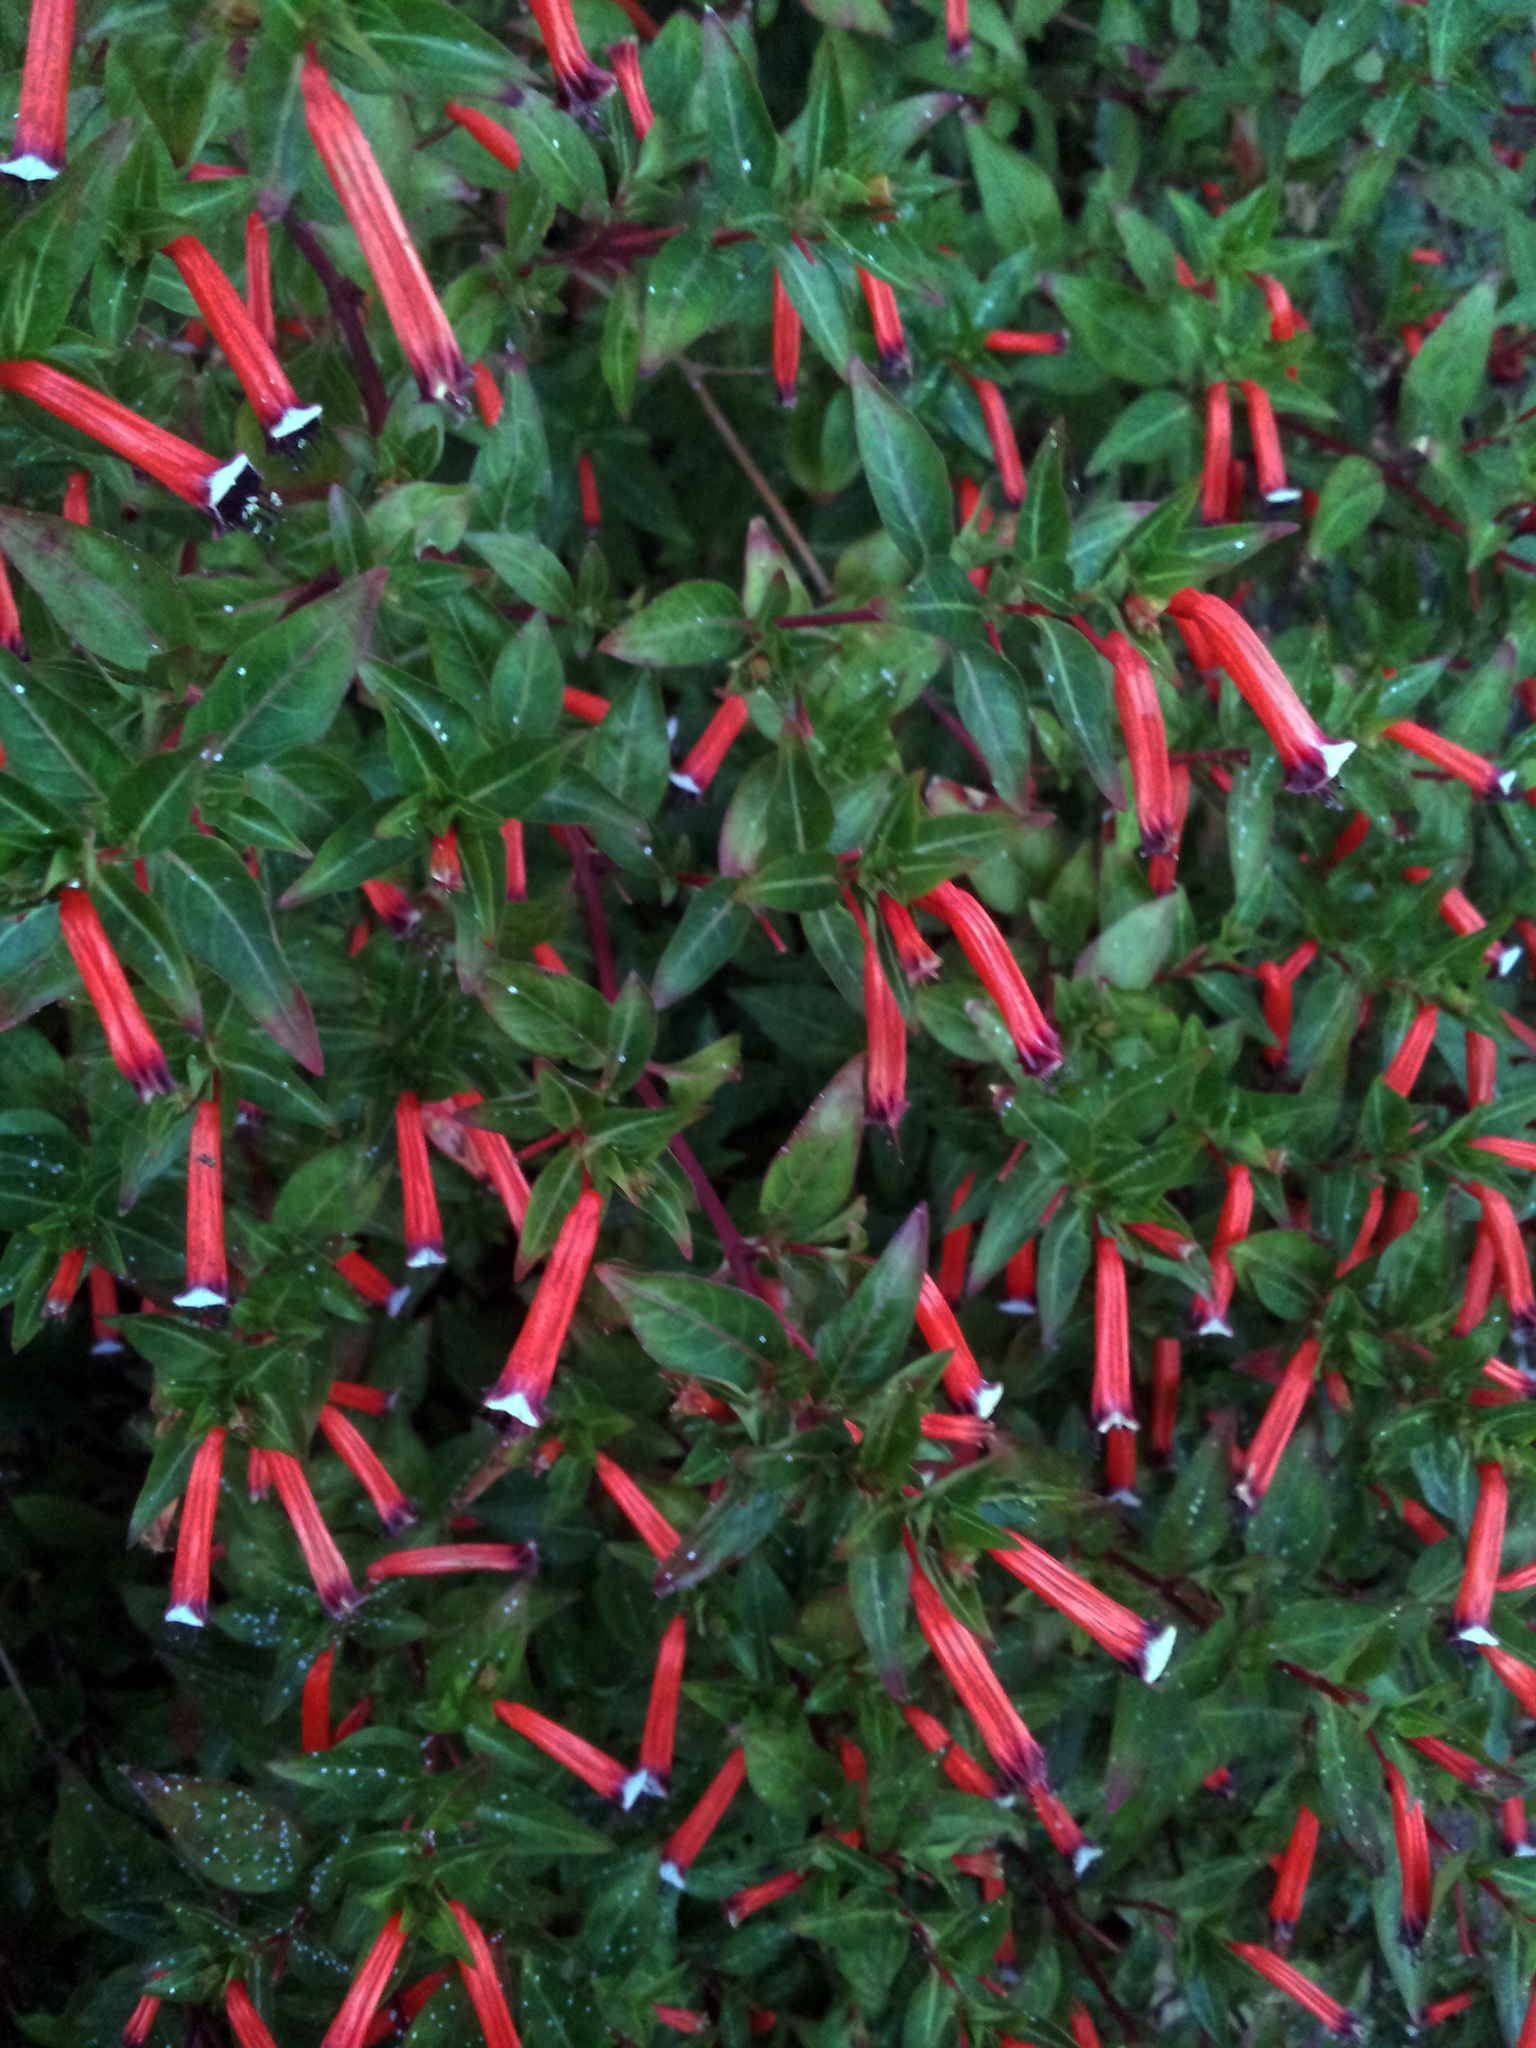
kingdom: Plantae
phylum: Tracheophyta
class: Magnoliopsida
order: Myrtales
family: Lythraceae
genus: Cuphea
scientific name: Cuphea ignea
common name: Cigar flower
